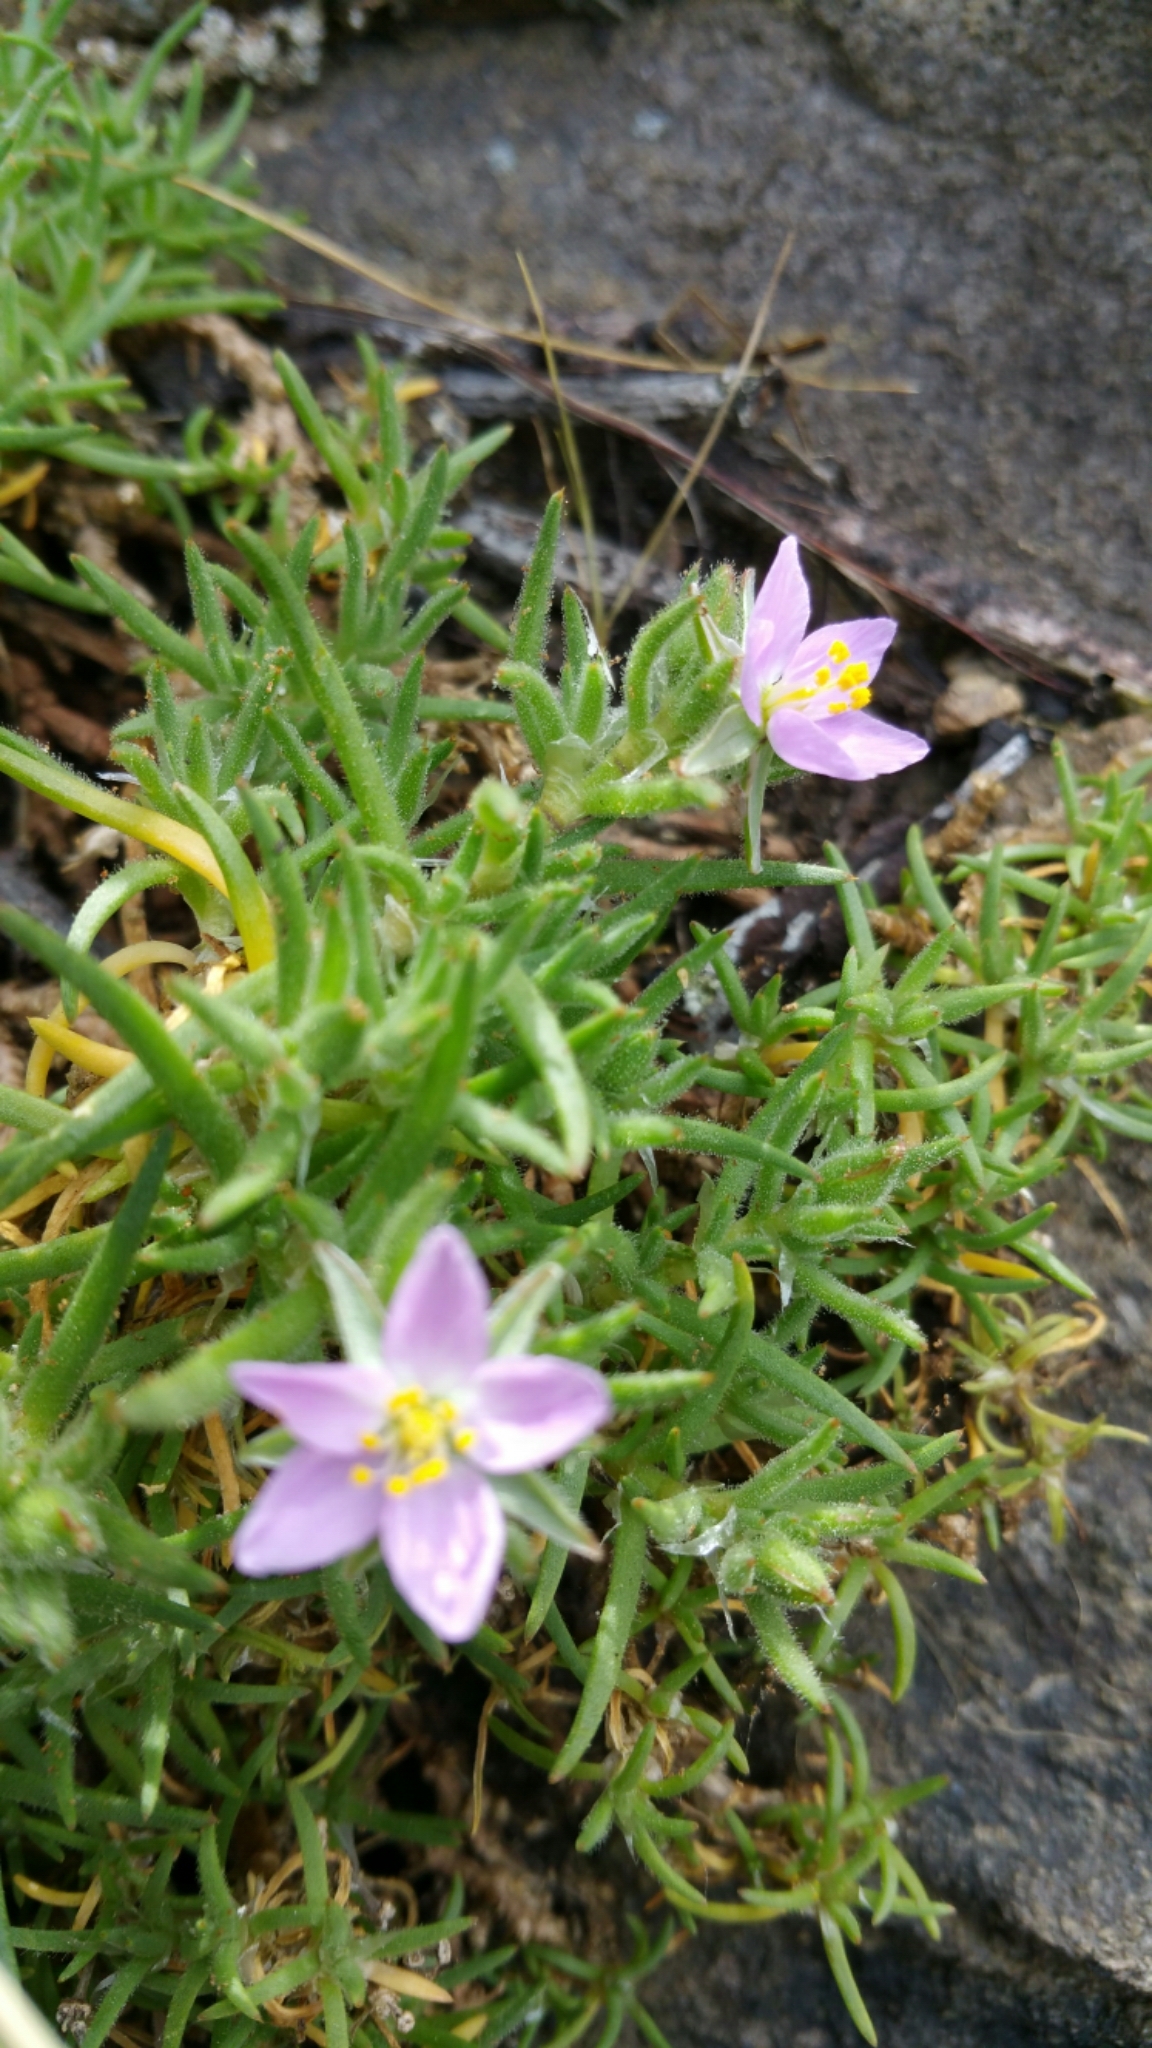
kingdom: Plantae
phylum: Tracheophyta
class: Magnoliopsida
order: Caryophyllales
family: Caryophyllaceae
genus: Spergularia
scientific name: Spergularia macrotheca
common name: Beach sand-spurrey
